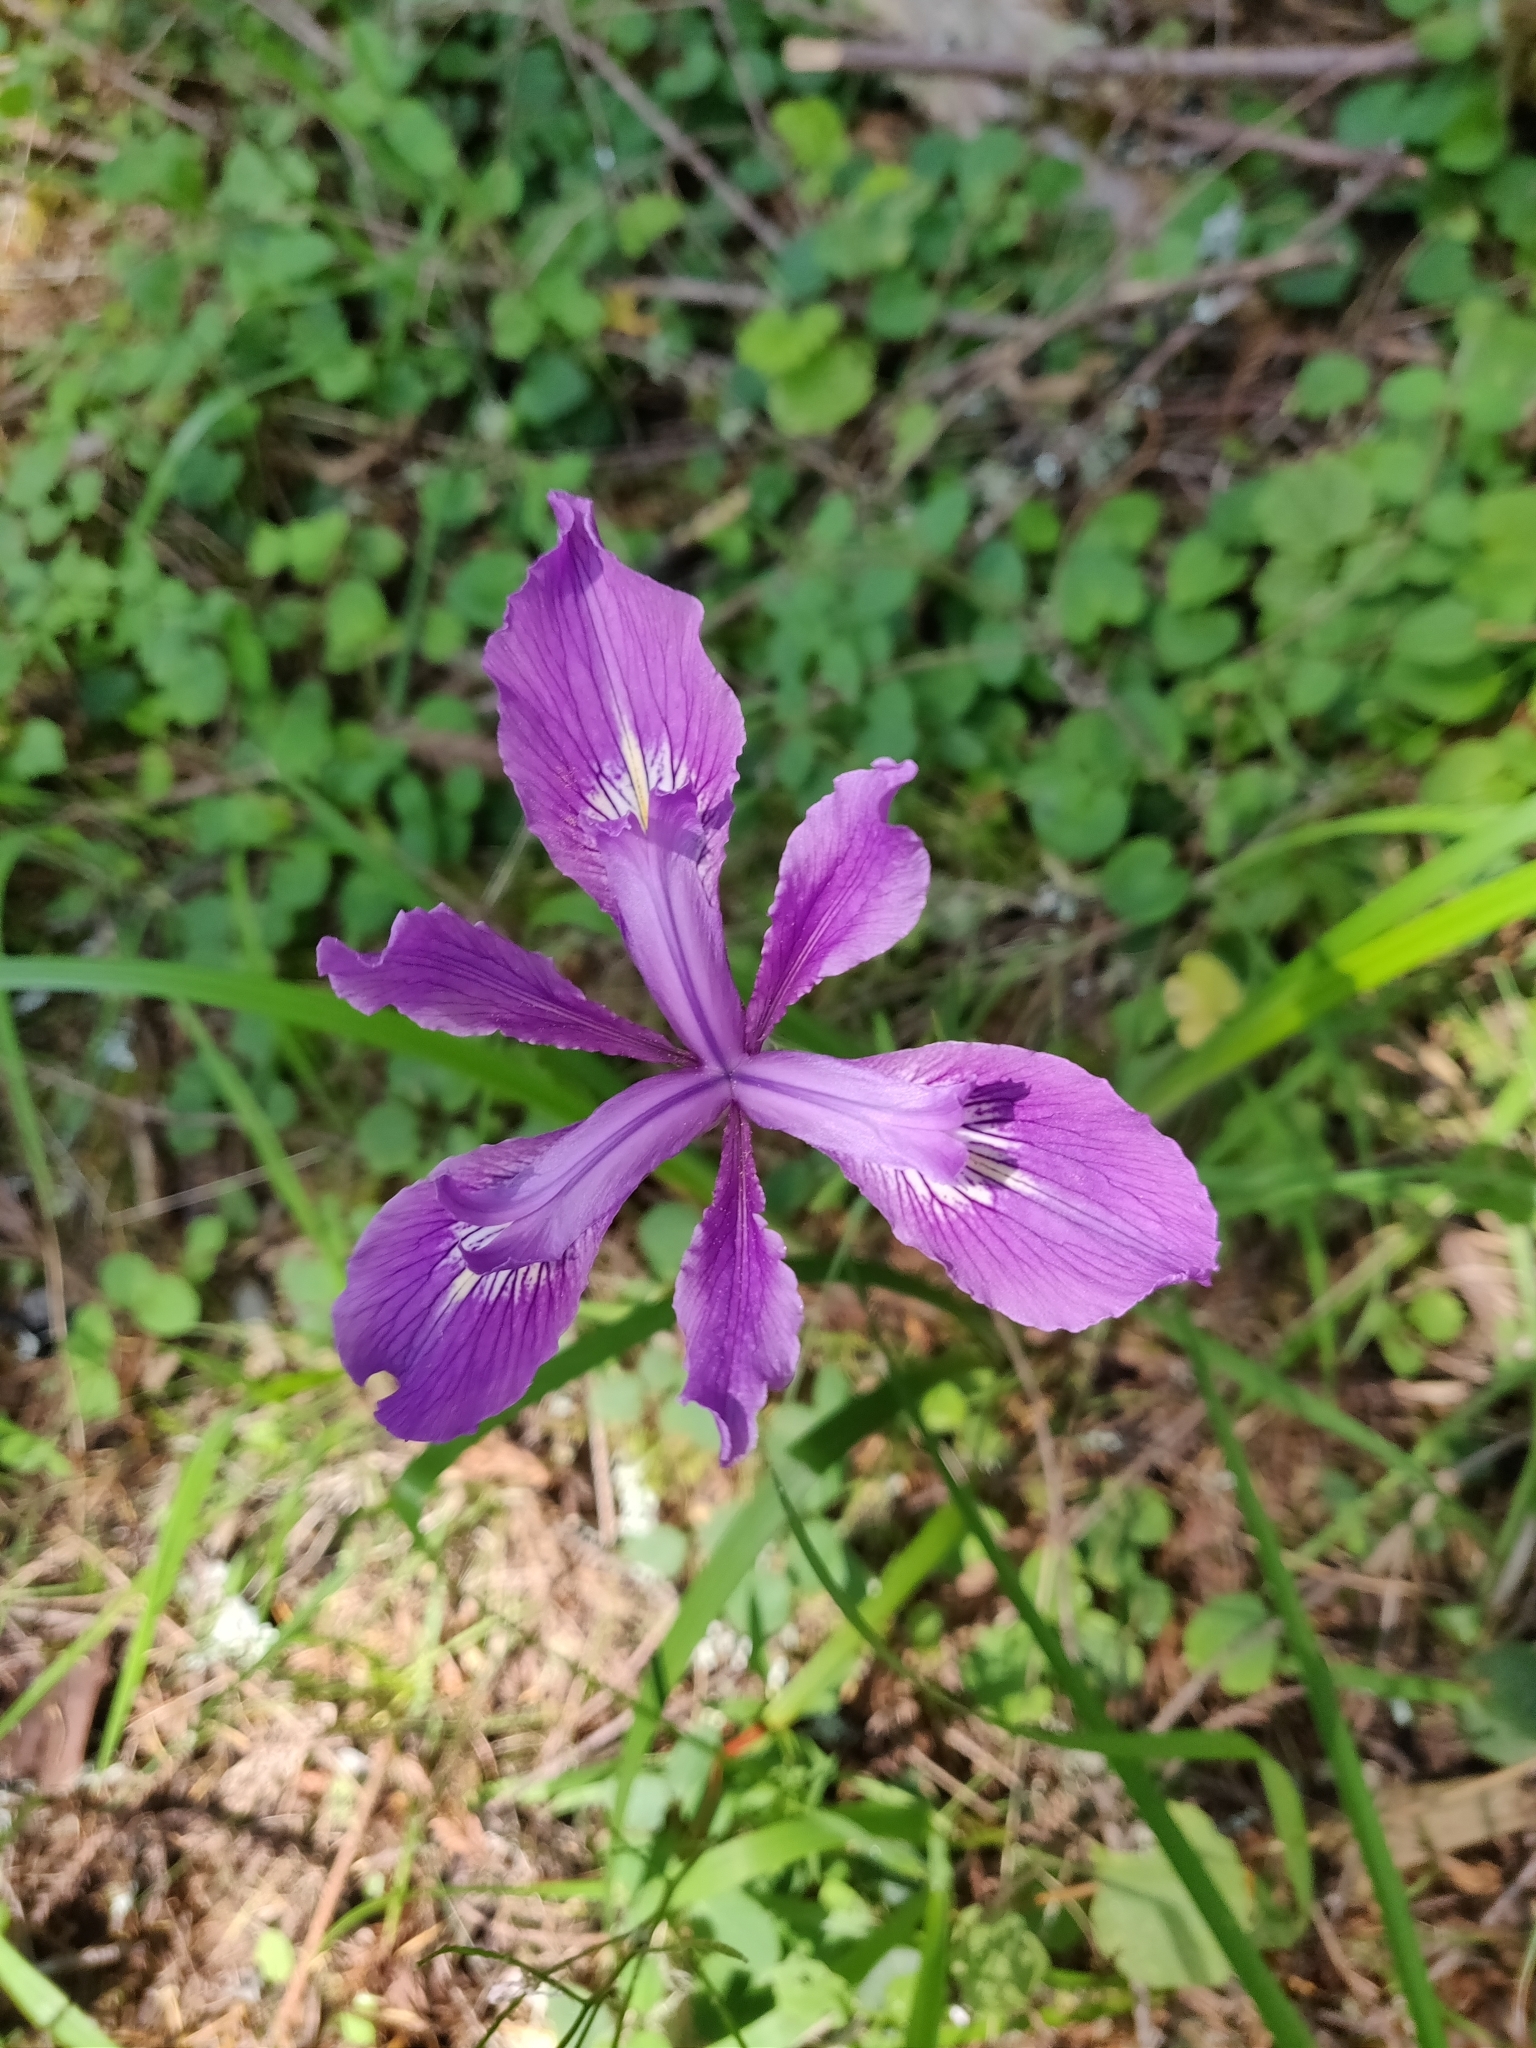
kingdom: Plantae
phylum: Tracheophyta
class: Liliopsida
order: Asparagales
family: Iridaceae
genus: Iris
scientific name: Iris douglasiana
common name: Marin iris
